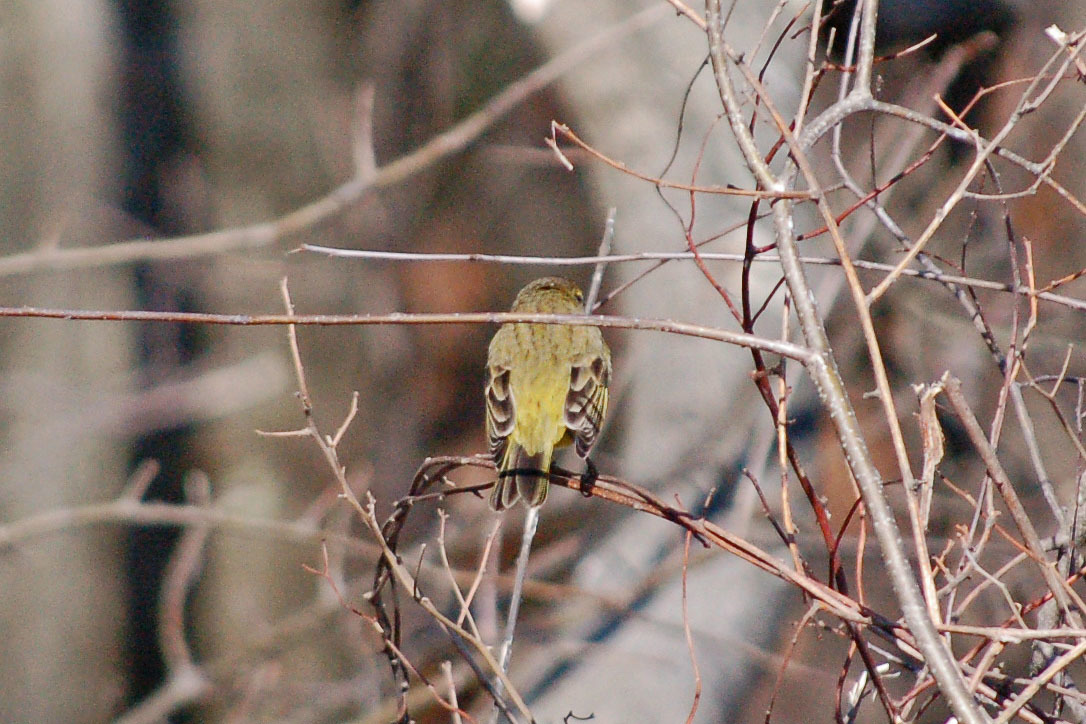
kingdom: Animalia
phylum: Chordata
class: Aves
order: Passeriformes
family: Parulidae
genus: Setophaga
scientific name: Setophaga palmarum
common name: Palm warbler
